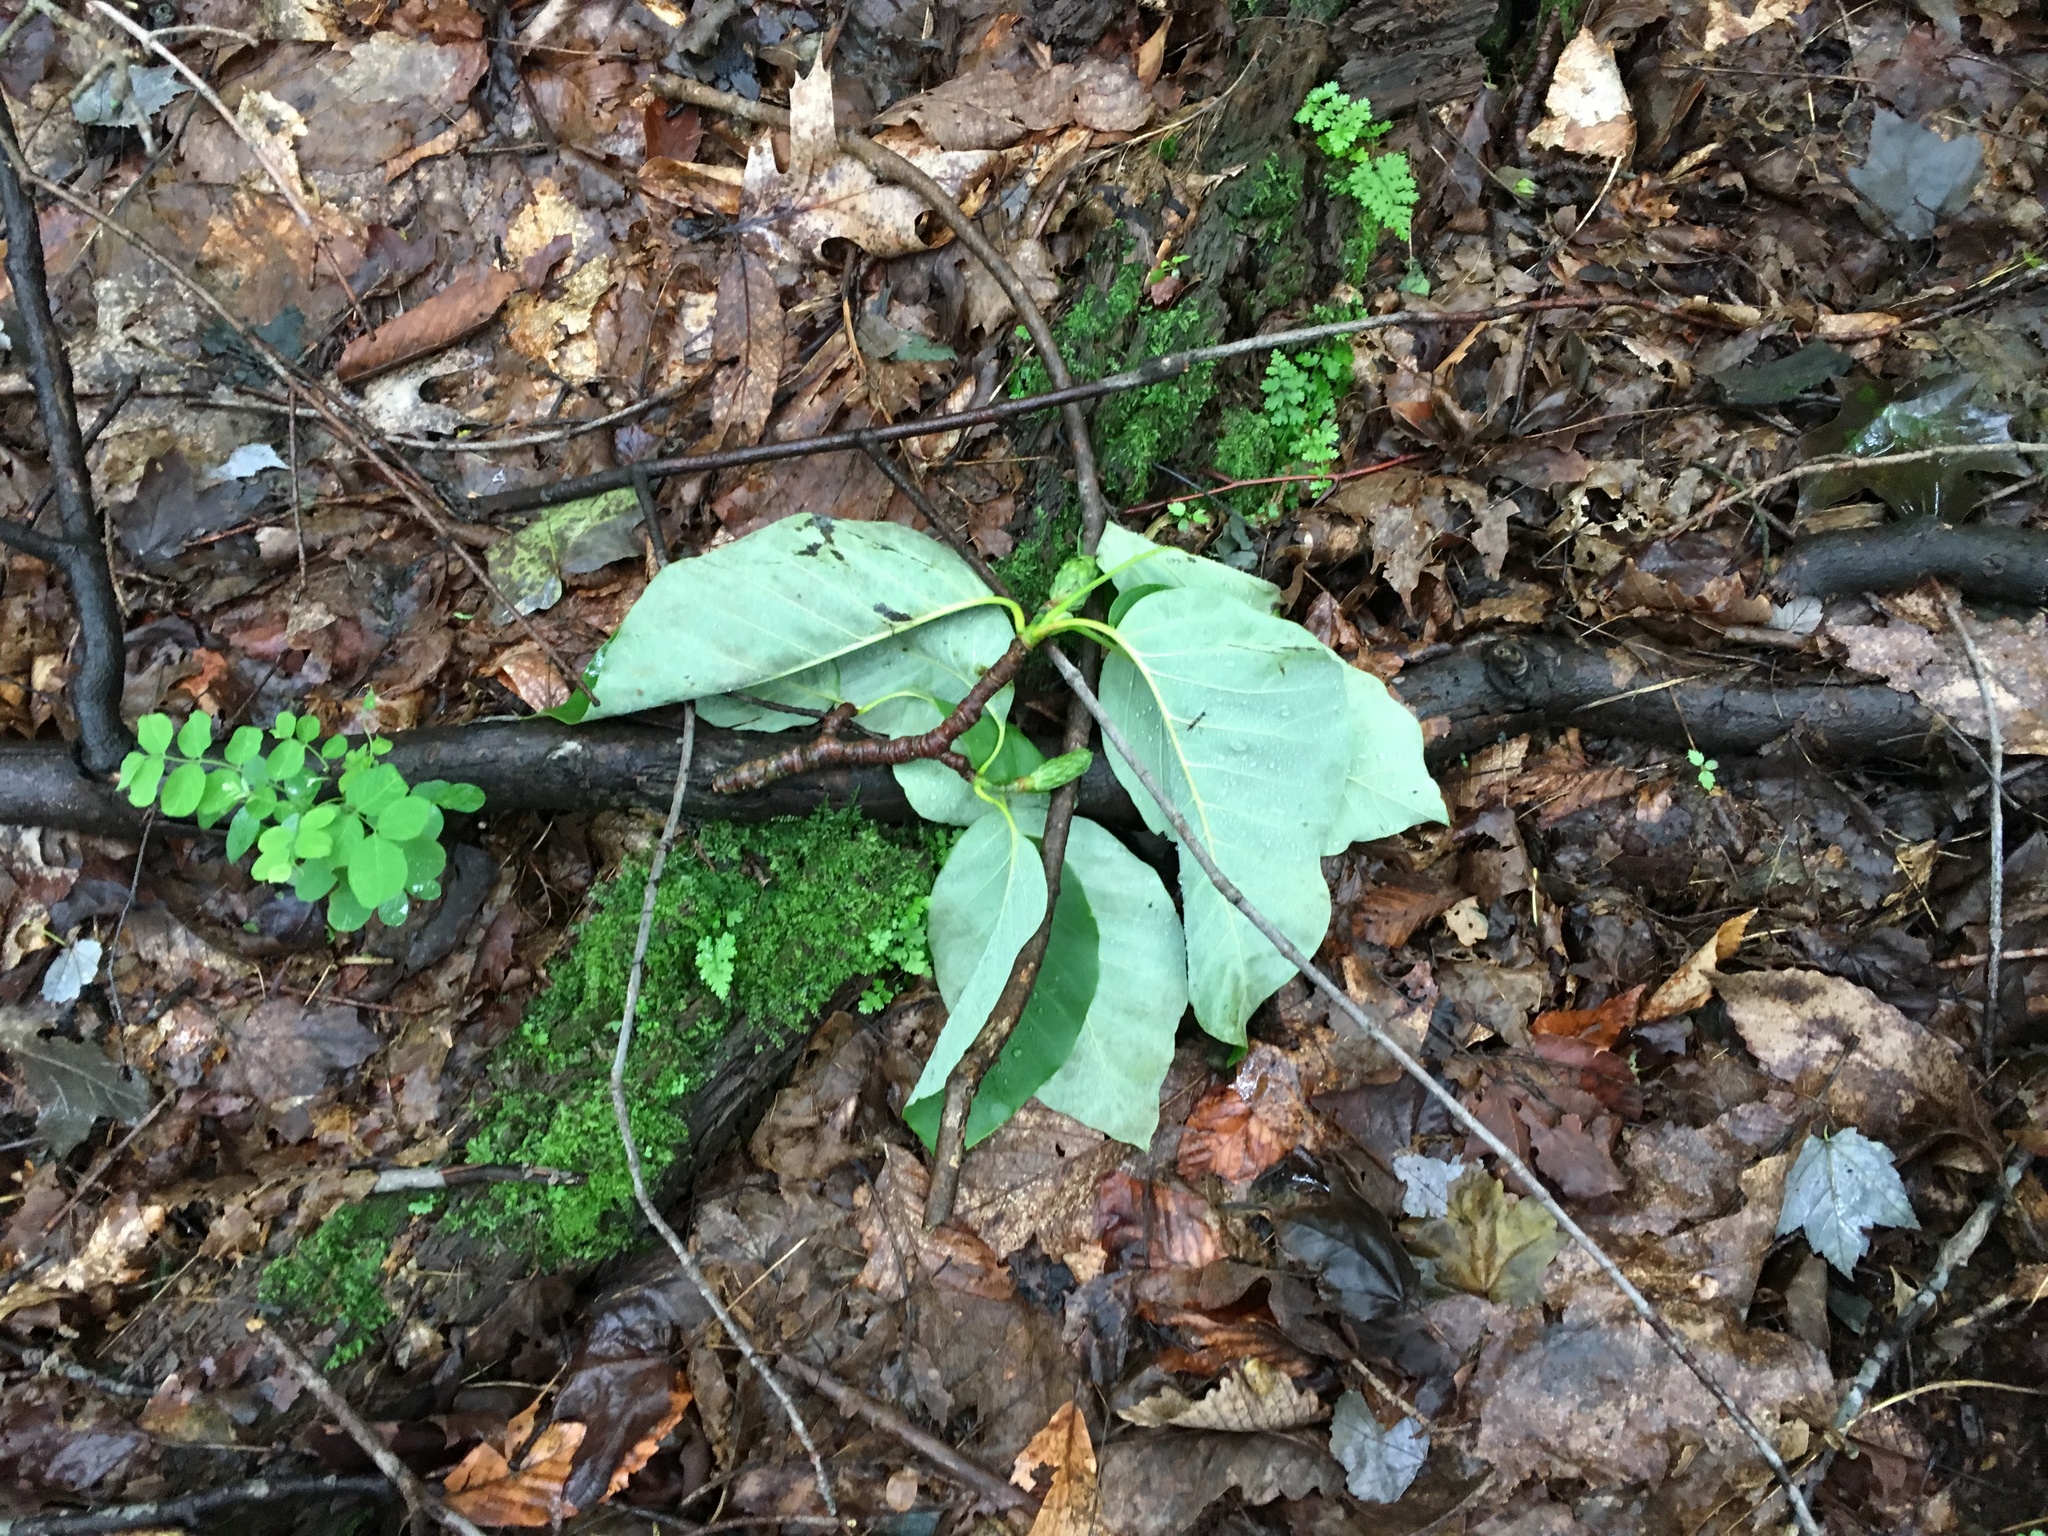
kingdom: Plantae
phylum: Tracheophyta
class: Magnoliopsida
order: Magnoliales
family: Magnoliaceae
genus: Magnolia
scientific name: Magnolia acuminata
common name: Cucumber magnolia
